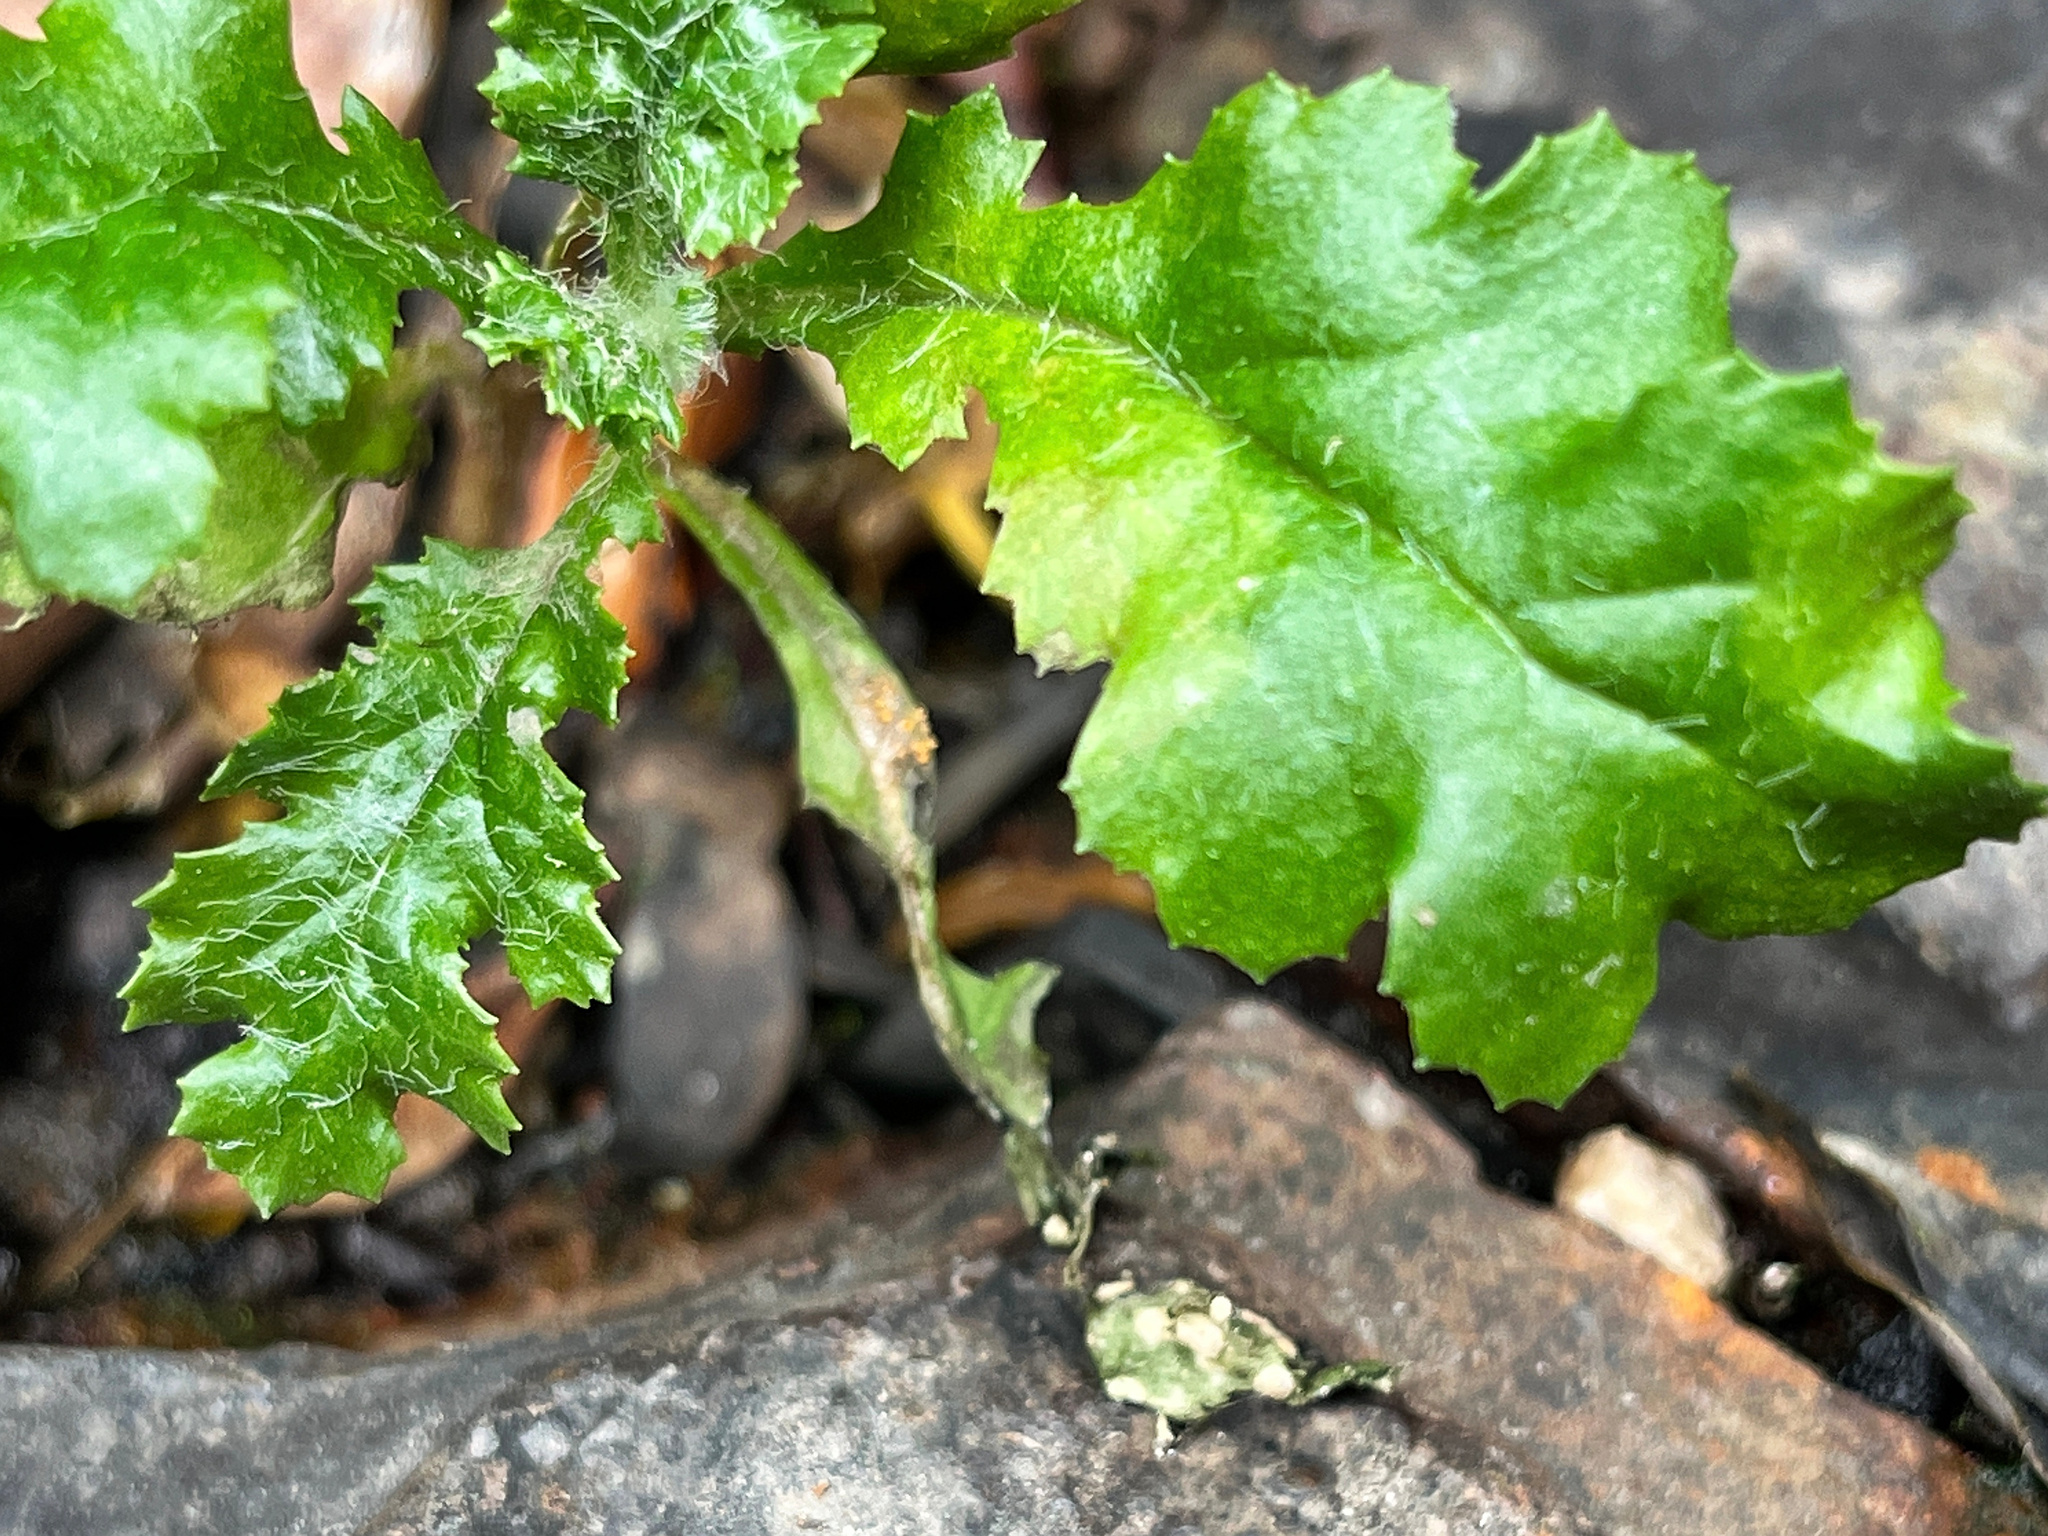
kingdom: Fungi
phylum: Basidiomycota
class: Pucciniomycetes
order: Pucciniales
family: Pucciniaceae
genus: Puccinia
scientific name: Puccinia lagenophorae
